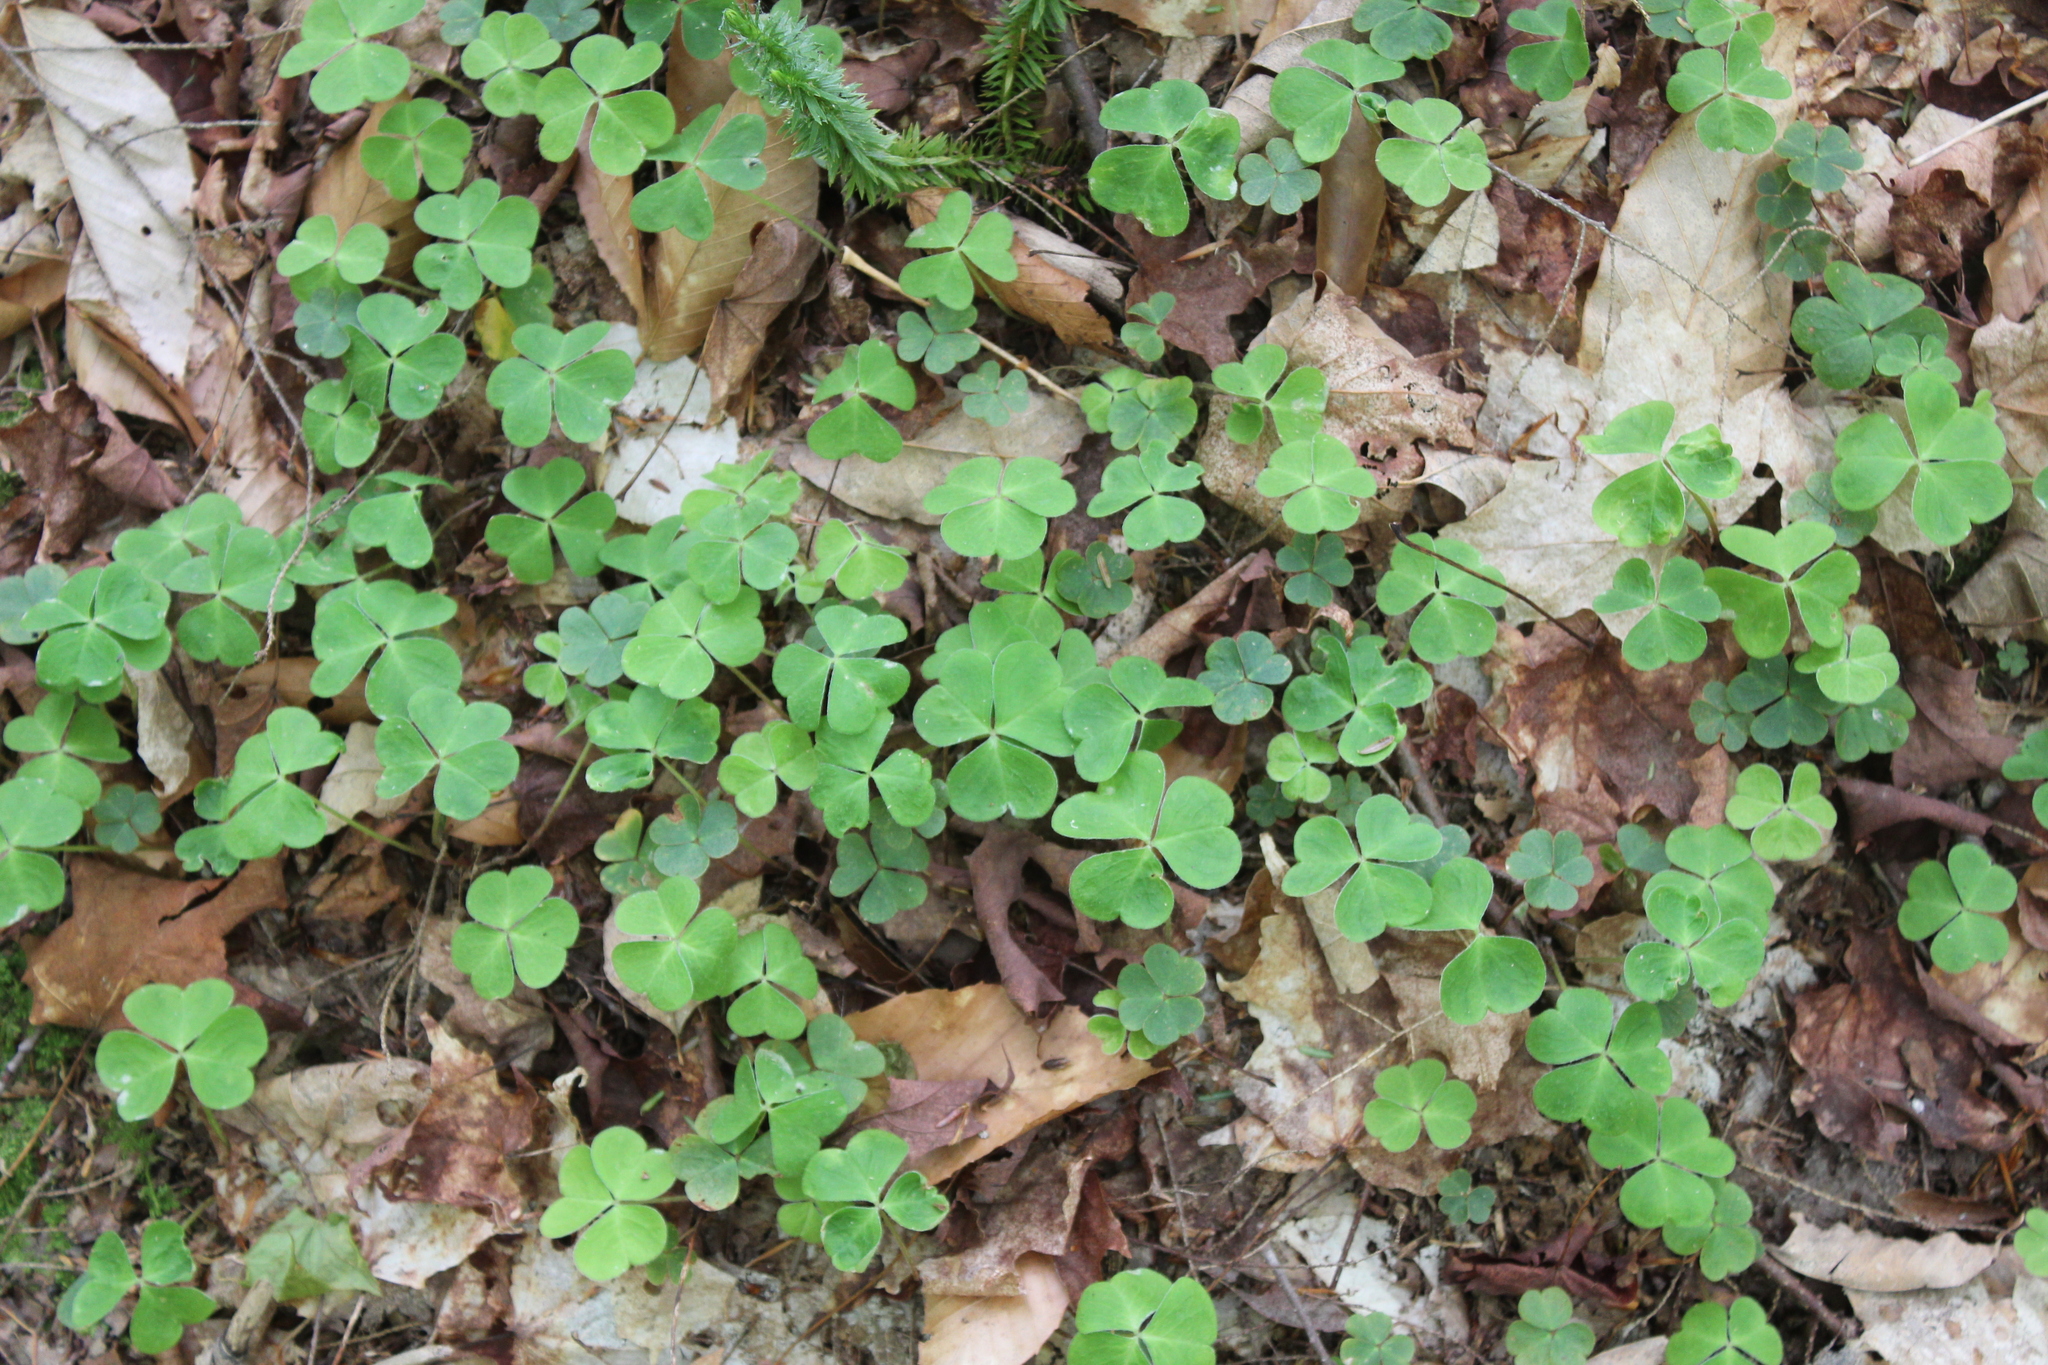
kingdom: Plantae
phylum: Tracheophyta
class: Magnoliopsida
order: Oxalidales
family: Oxalidaceae
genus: Oxalis
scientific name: Oxalis montana
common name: American wood-sorrel
